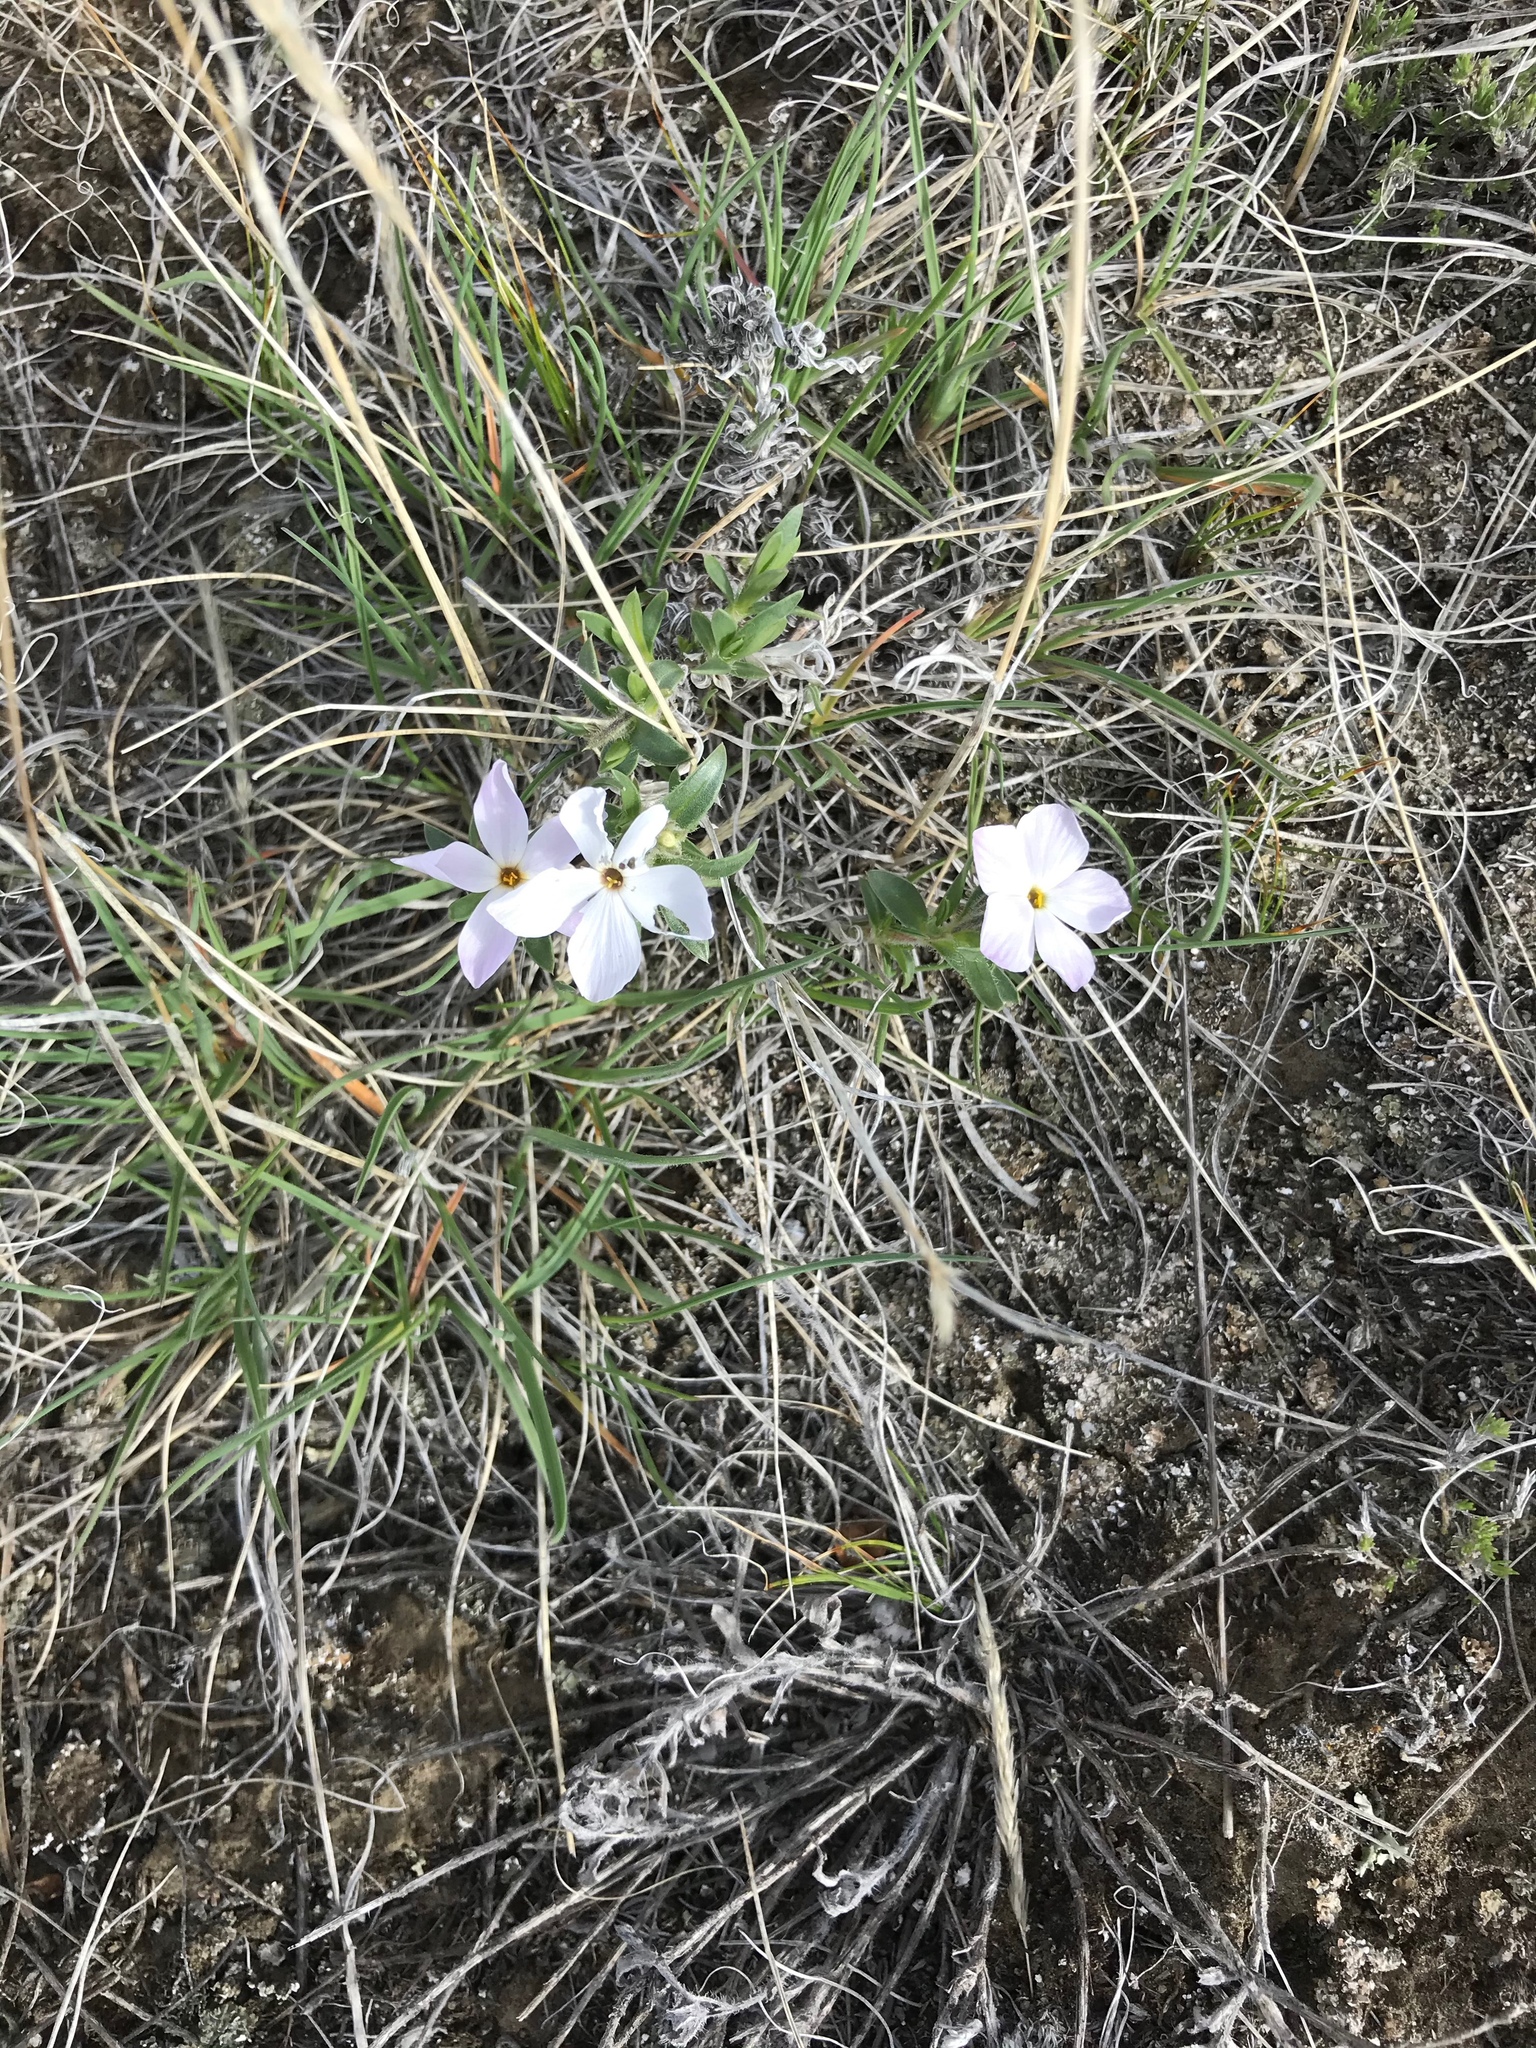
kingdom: Plantae
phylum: Tracheophyta
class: Magnoliopsida
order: Ericales
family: Polemoniaceae
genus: Phlox
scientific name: Phlox alyssifolia
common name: Blue phlox
